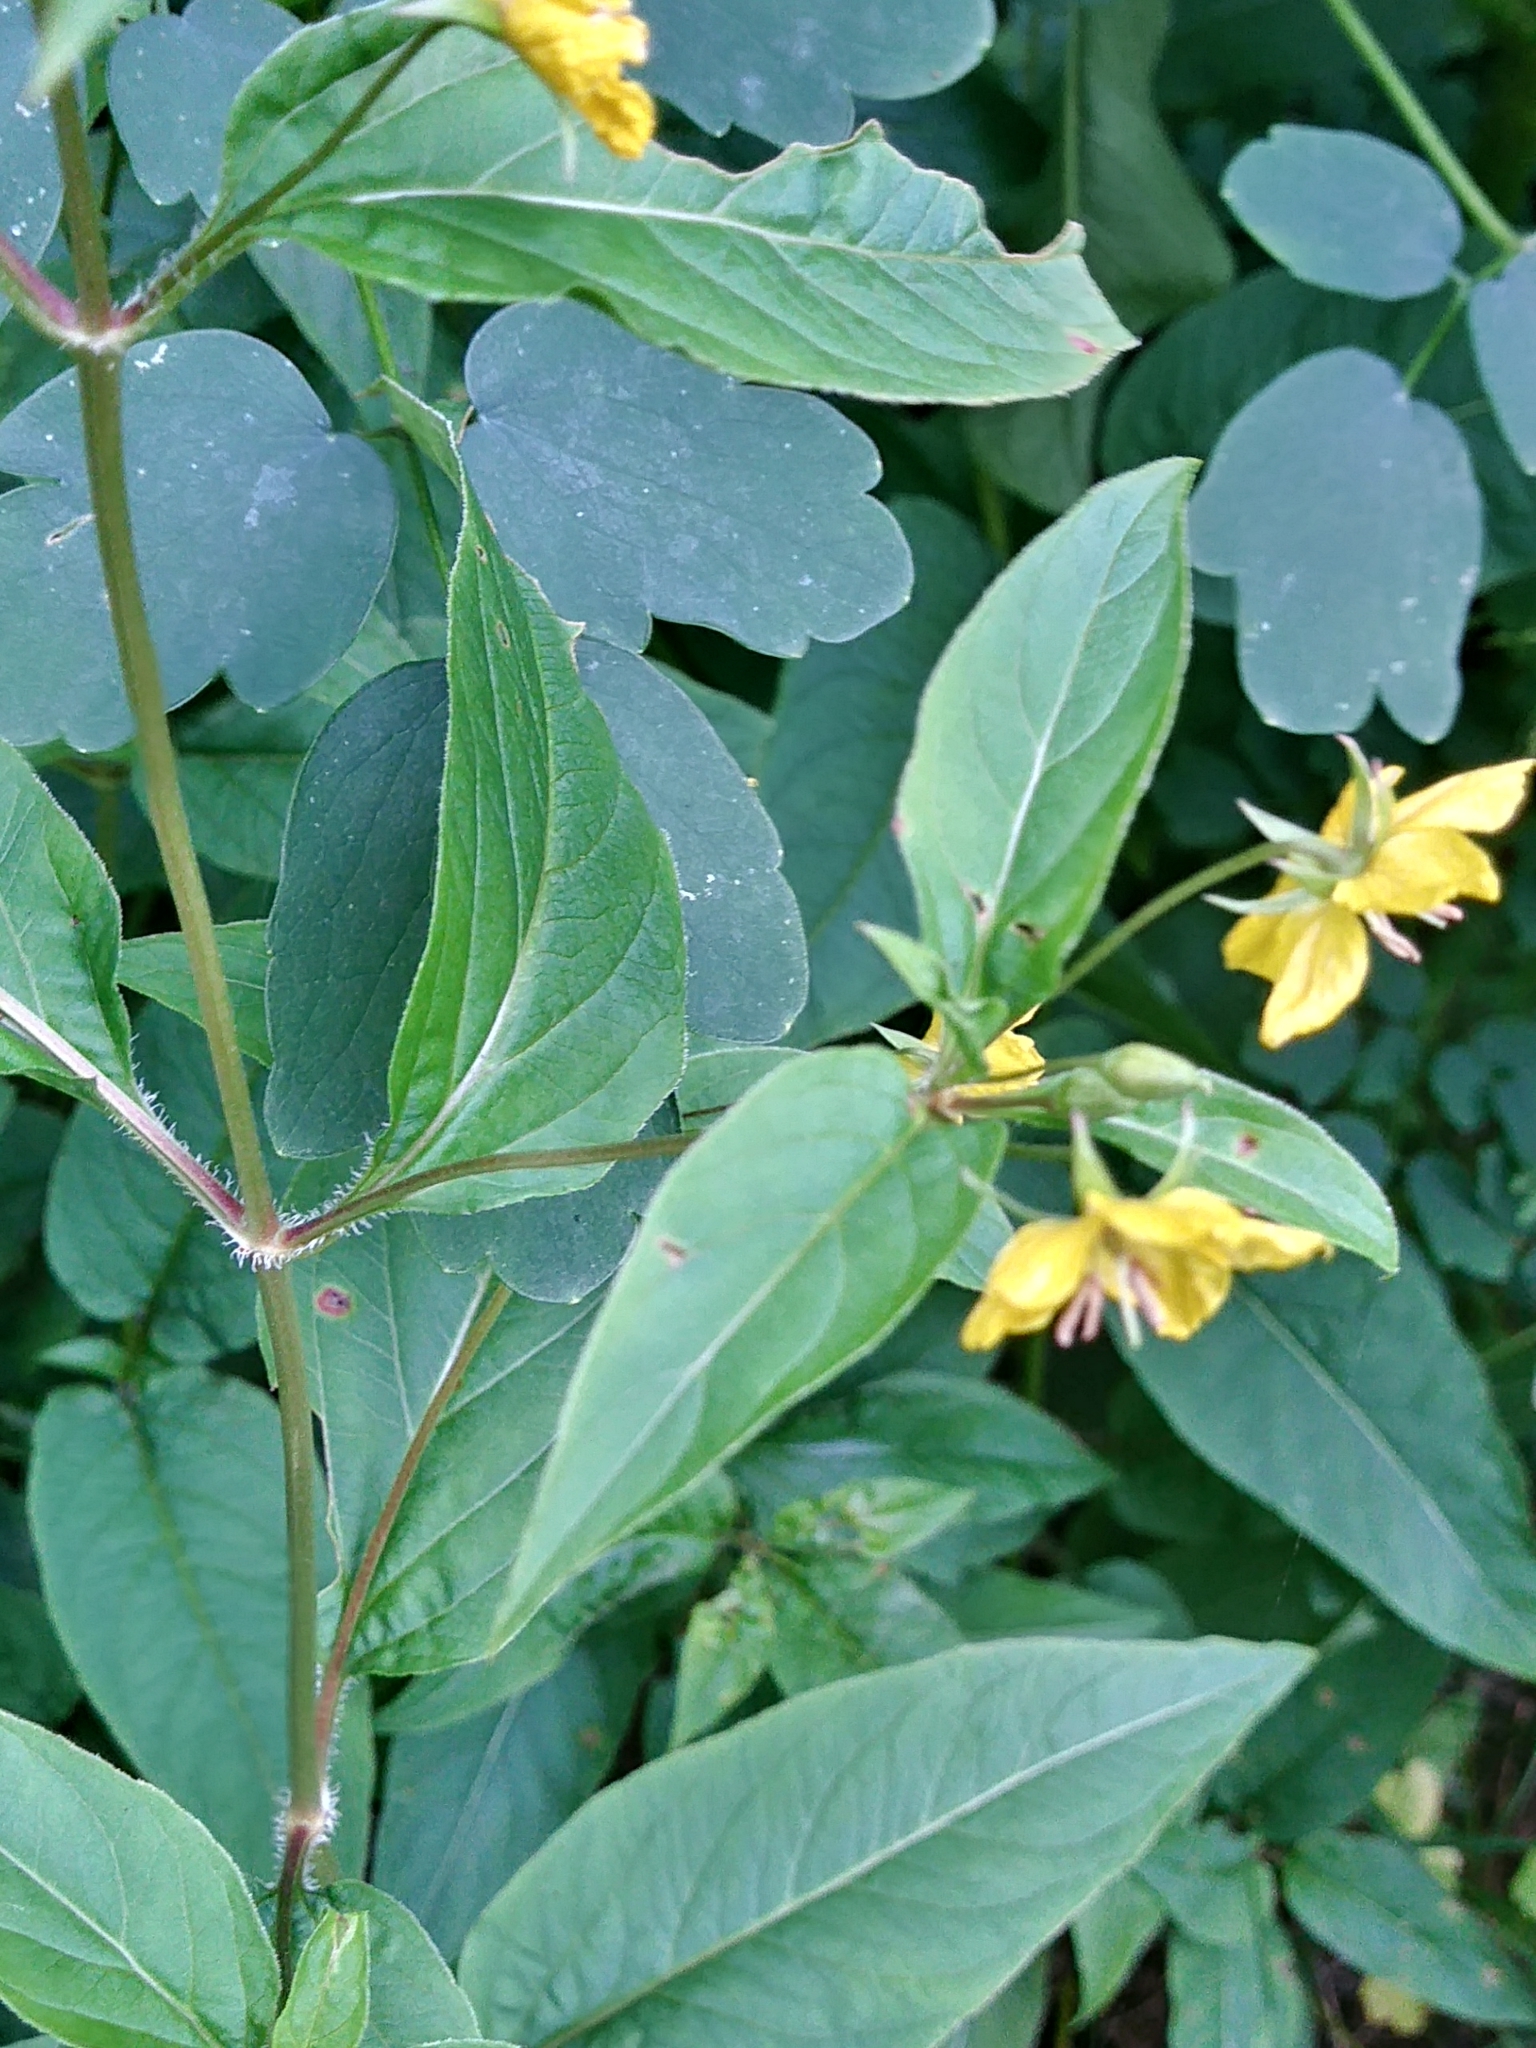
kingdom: Plantae
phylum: Tracheophyta
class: Magnoliopsida
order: Ericales
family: Primulaceae
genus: Lysimachia
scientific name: Lysimachia ciliata
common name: Fringed loosestrife
